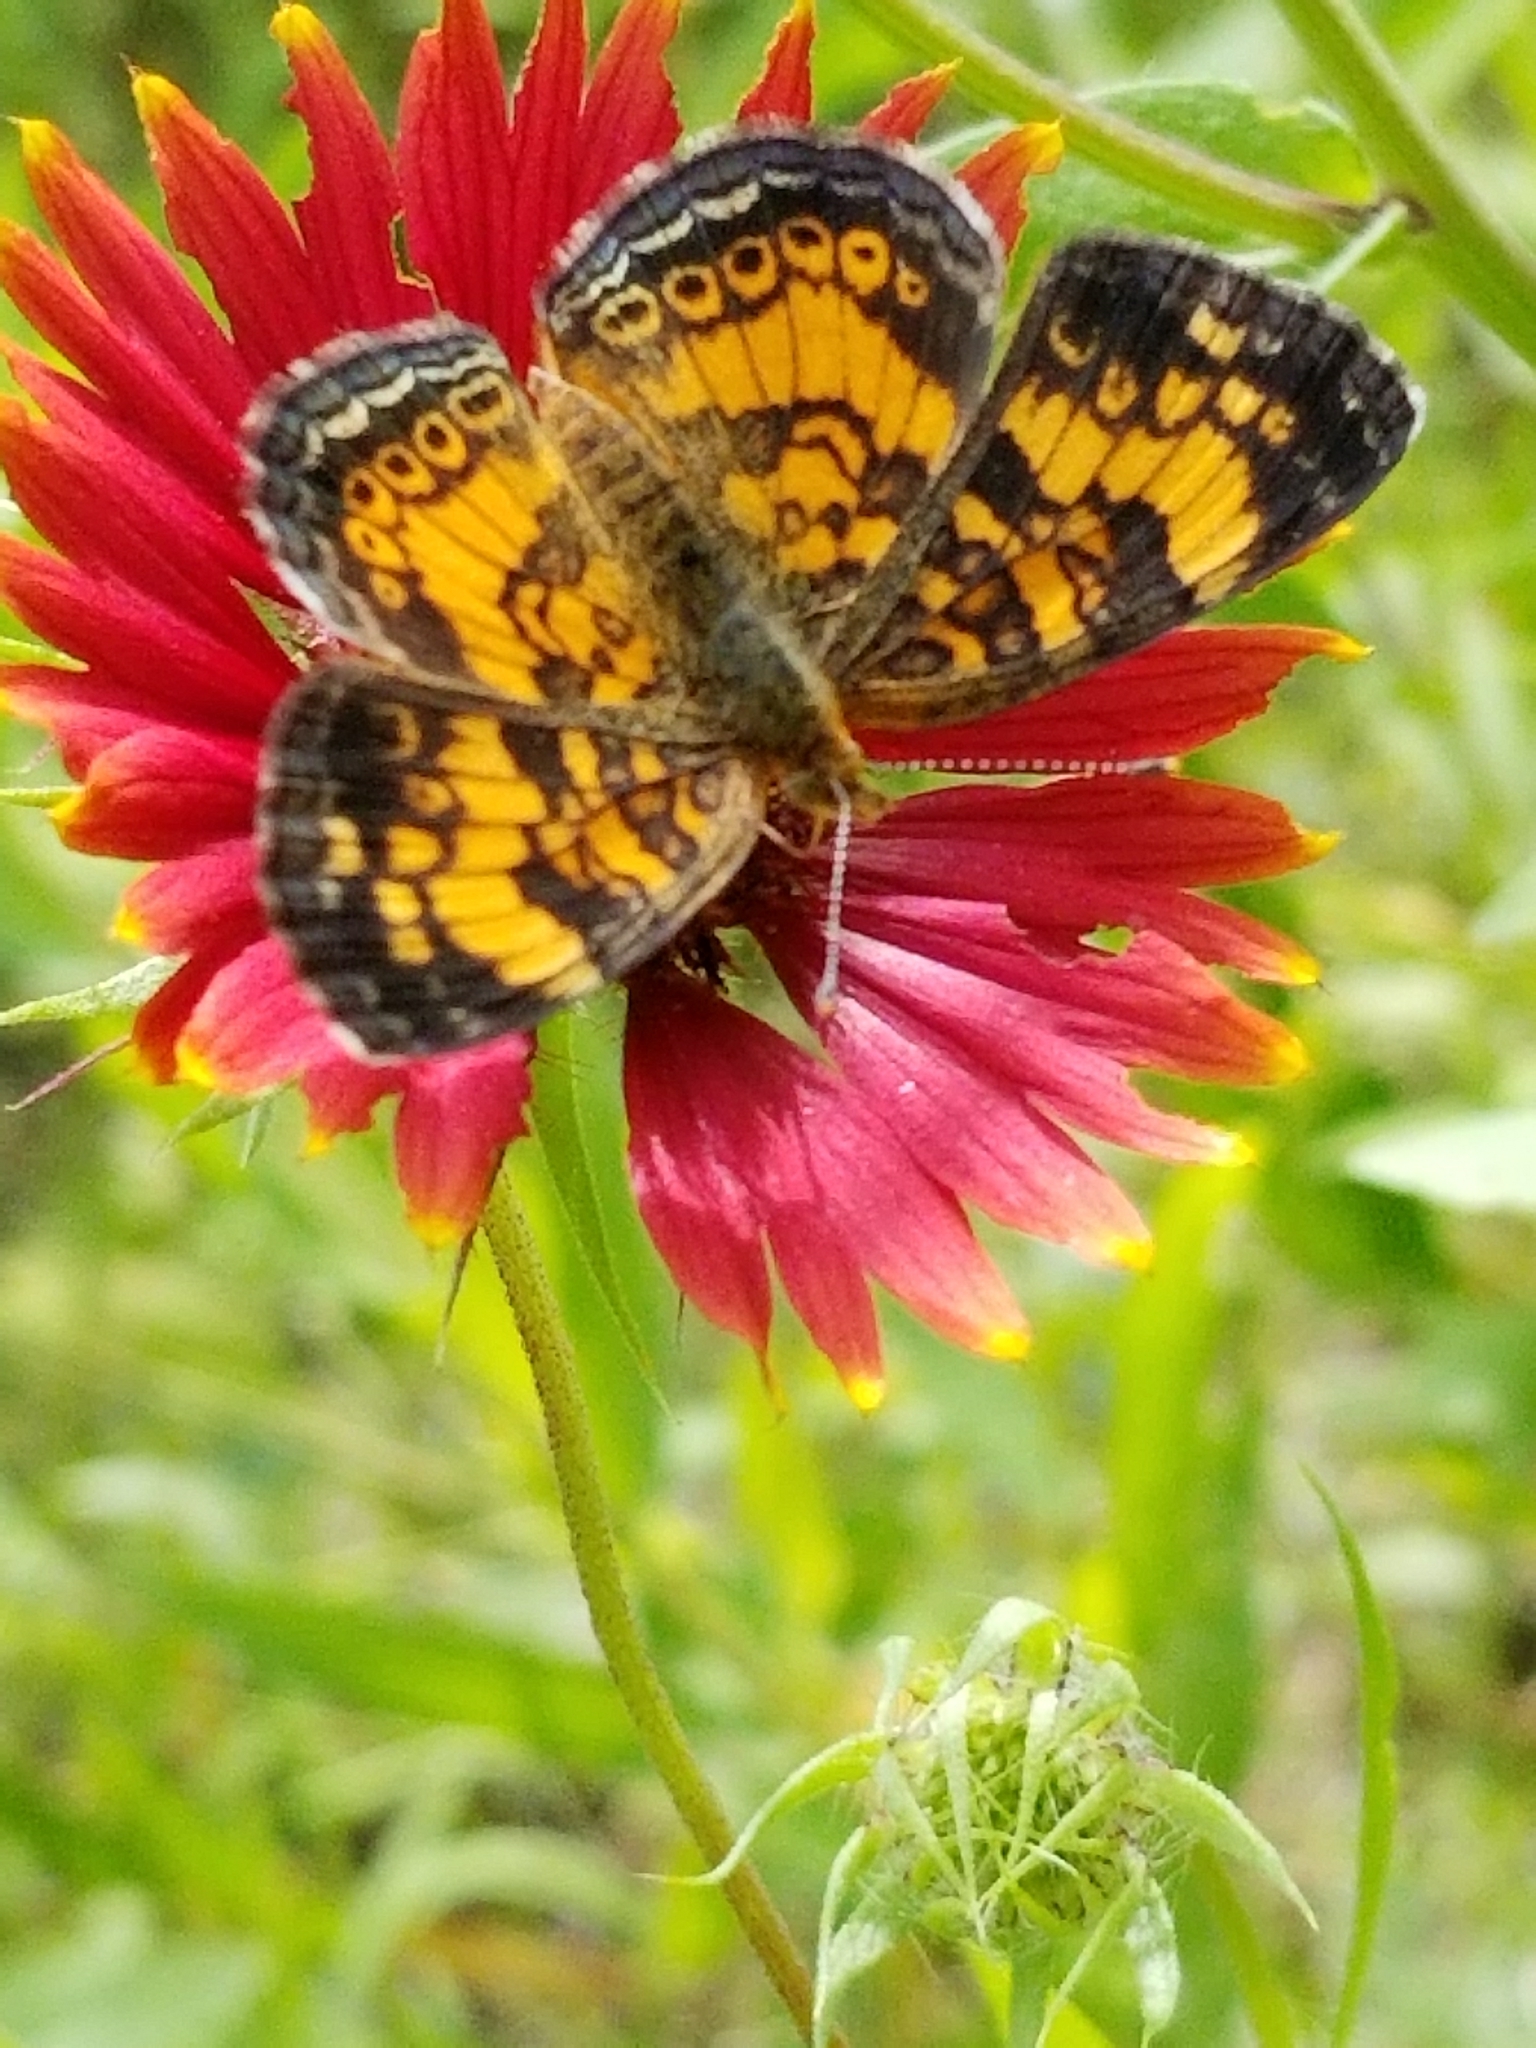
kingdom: Animalia
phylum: Arthropoda
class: Insecta
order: Lepidoptera
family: Nymphalidae
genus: Phyciodes
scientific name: Phyciodes tharos
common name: Pearl crescent
